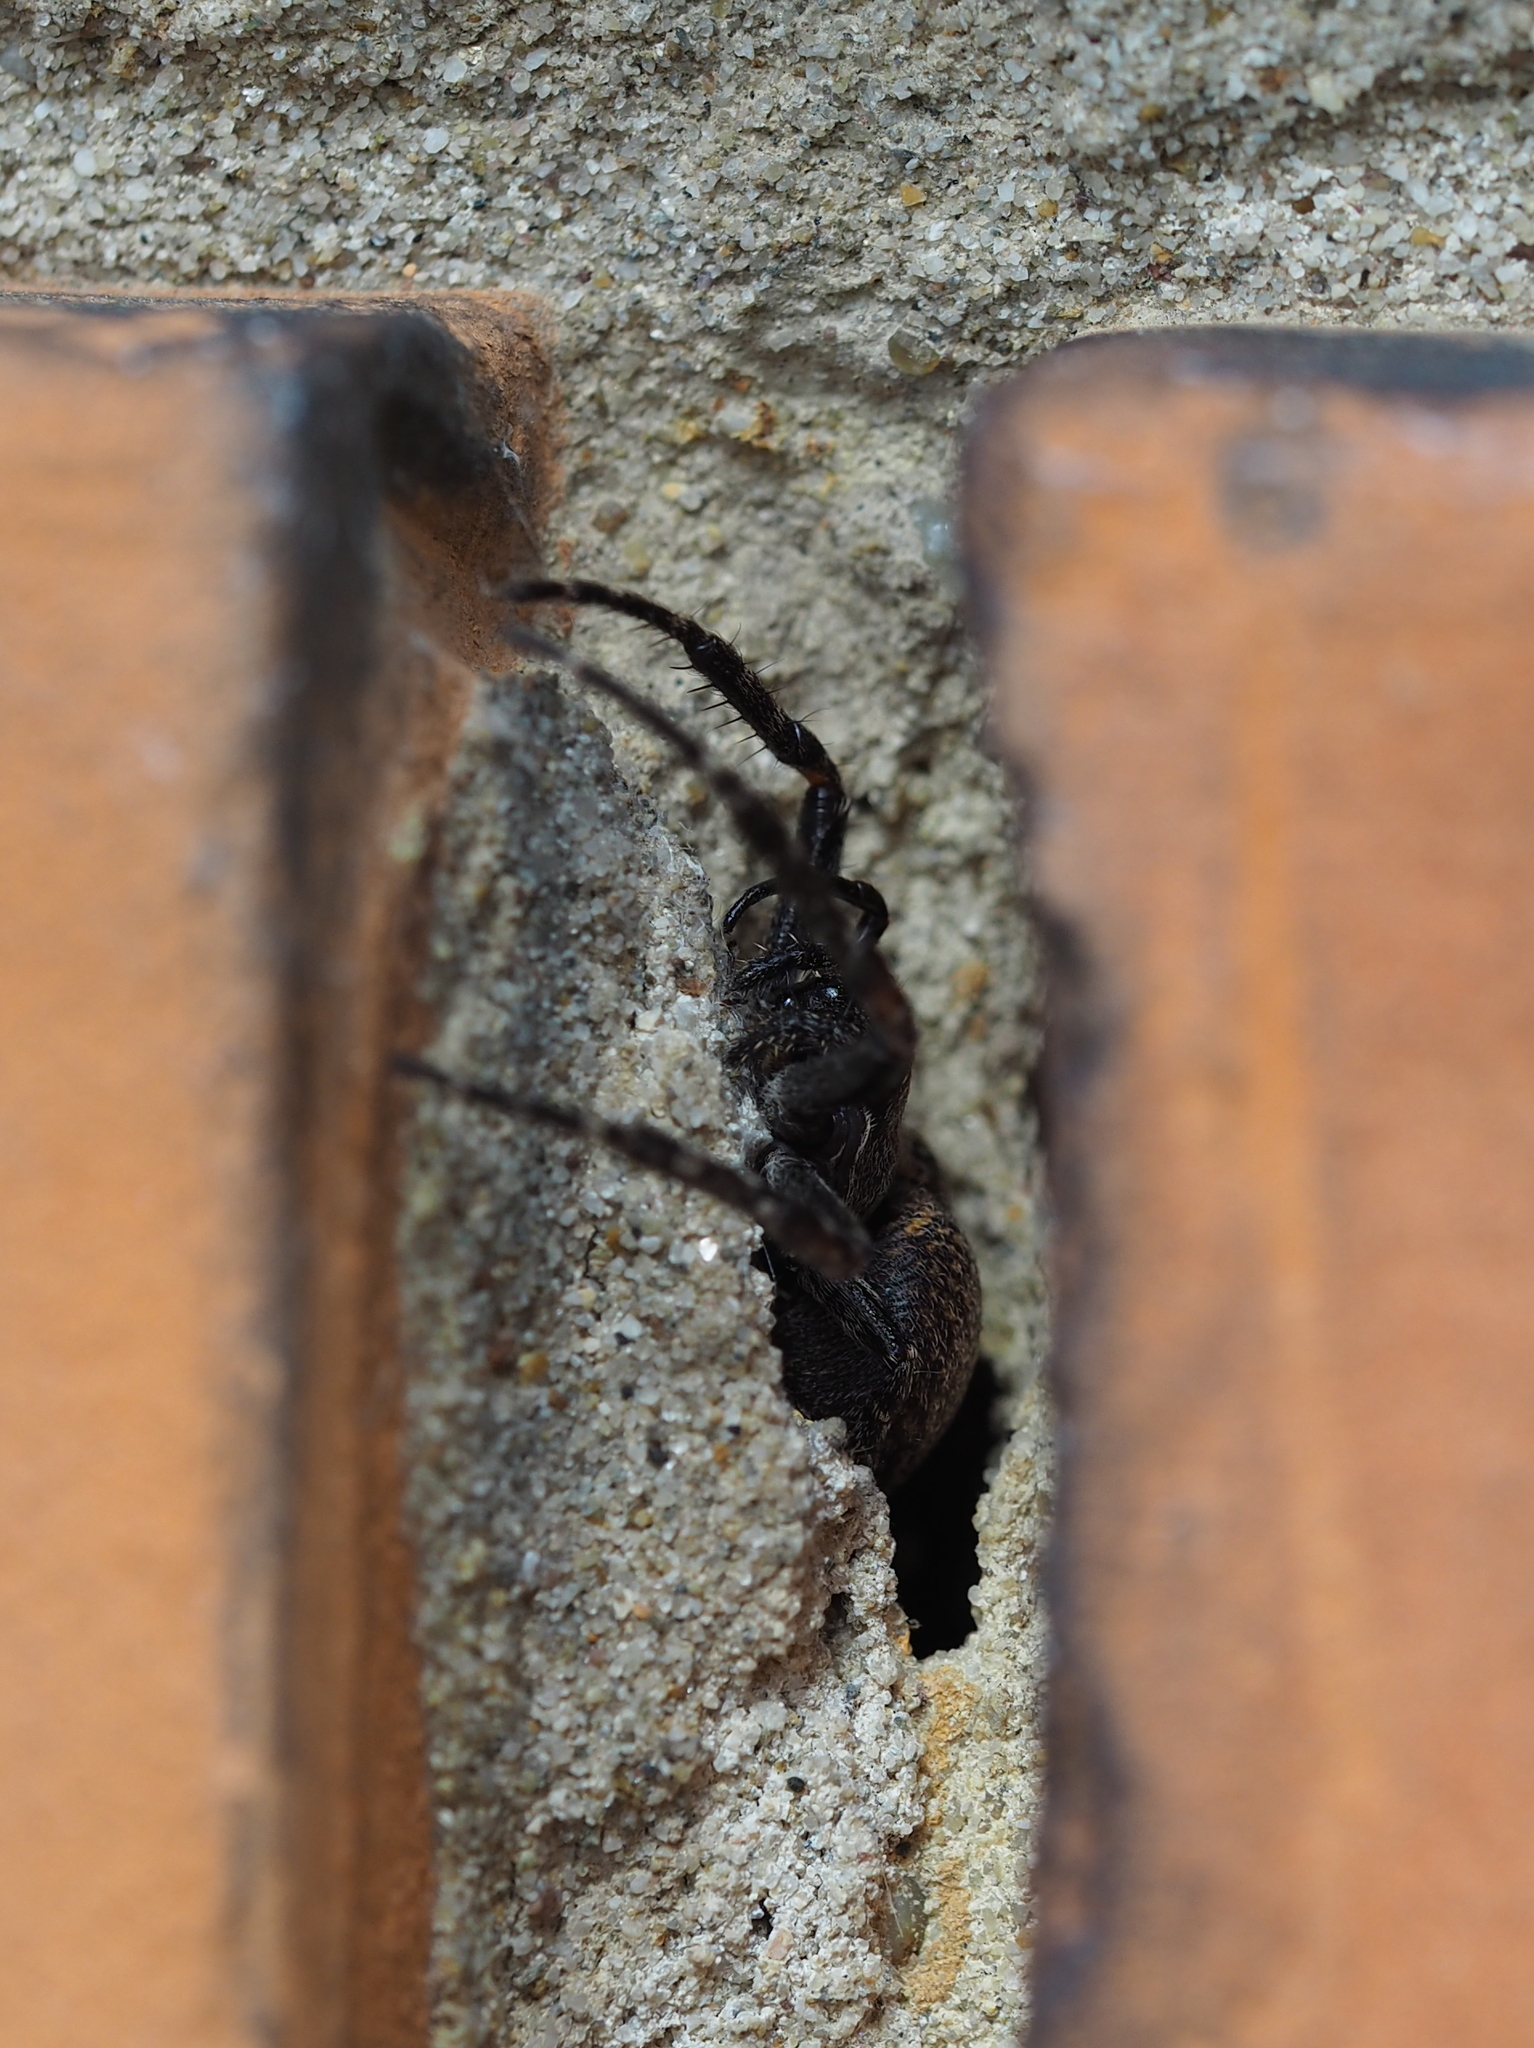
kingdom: Animalia
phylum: Arthropoda
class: Arachnida
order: Araneae
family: Araneidae
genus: Nuctenea
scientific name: Nuctenea umbratica
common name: Toad spider
